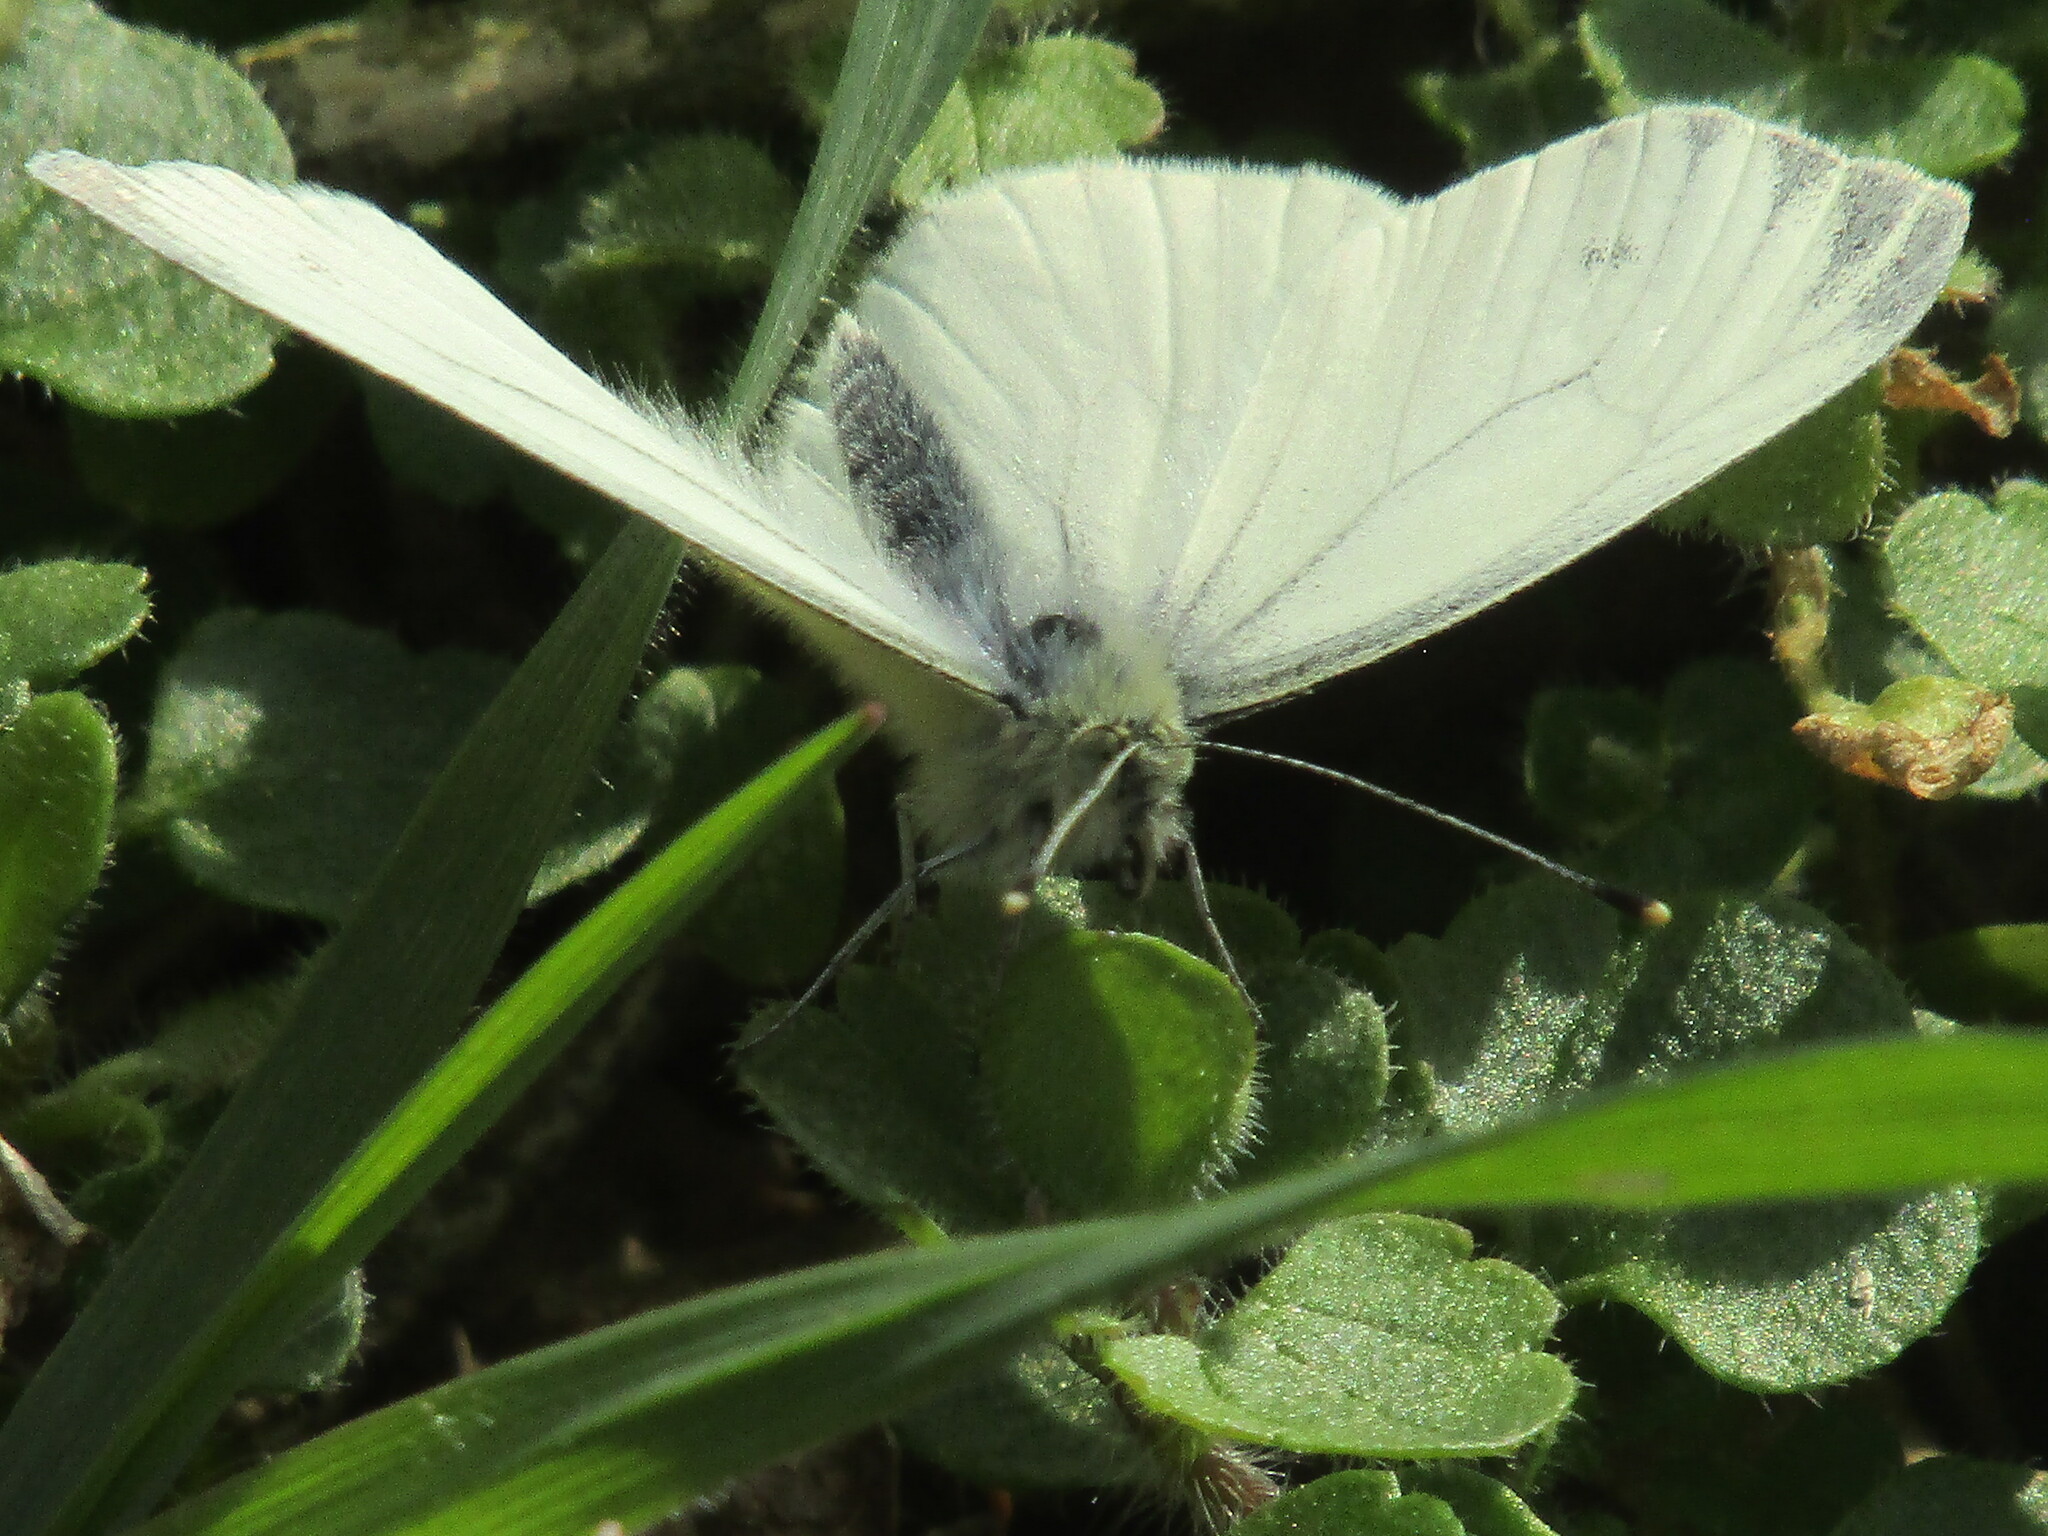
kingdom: Animalia
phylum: Arthropoda
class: Insecta
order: Lepidoptera
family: Pieridae
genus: Pieris
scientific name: Pieris napi
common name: Green-veined white
